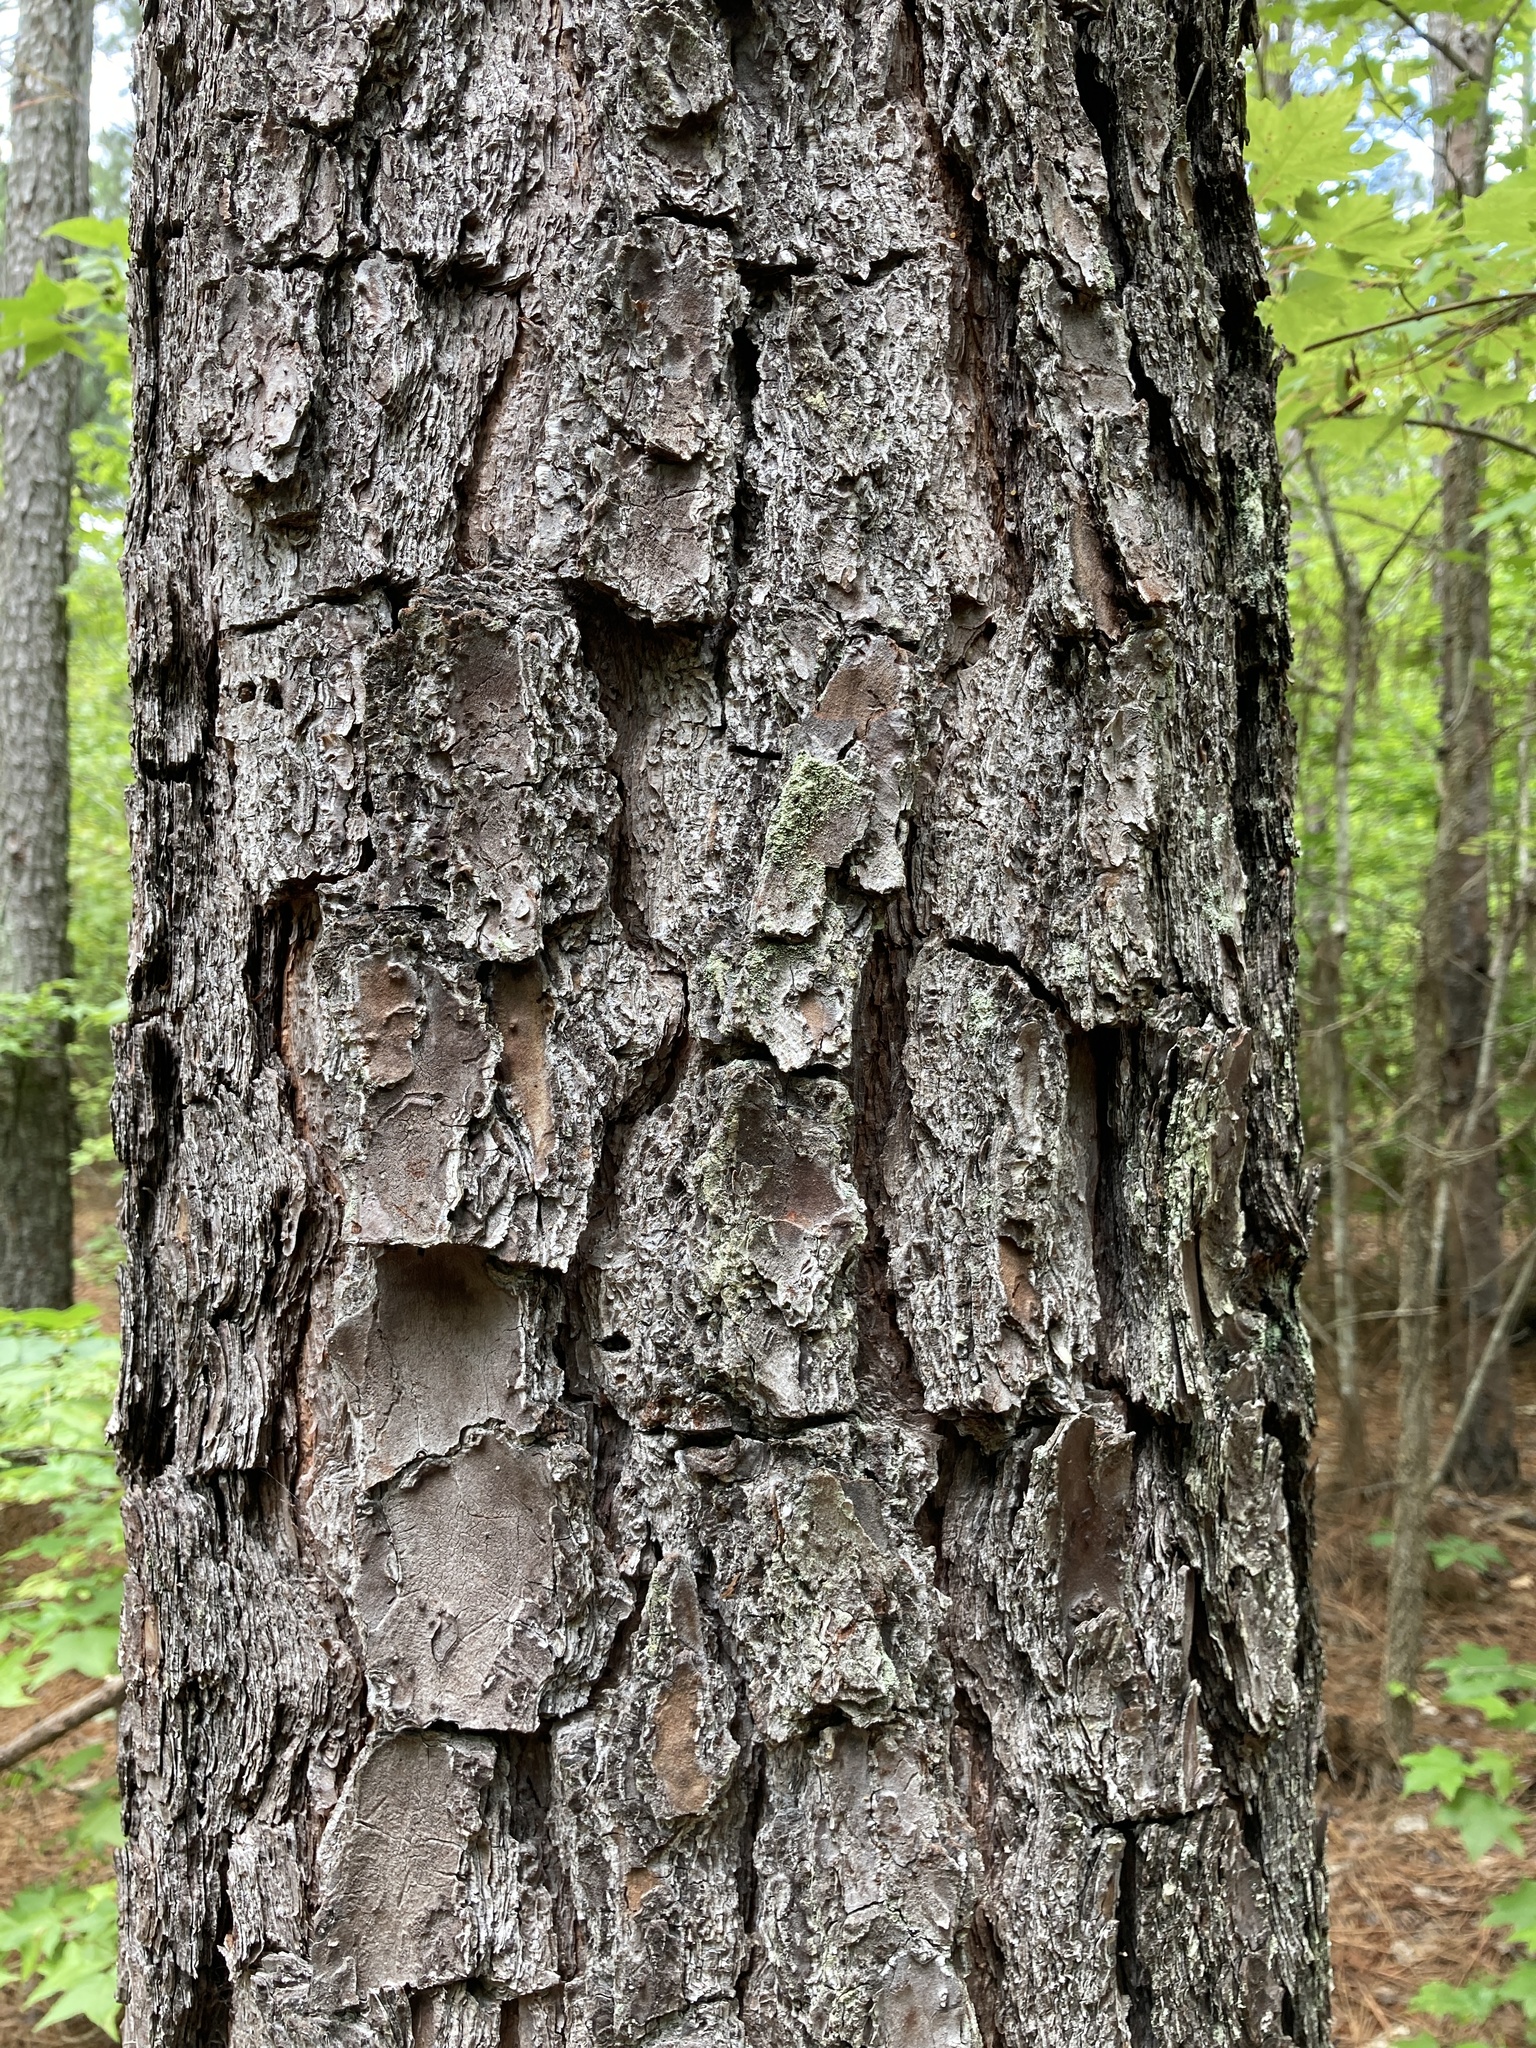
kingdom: Plantae
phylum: Tracheophyta
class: Pinopsida
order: Pinales
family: Pinaceae
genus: Pinus
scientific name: Pinus taeda
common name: Loblolly pine
